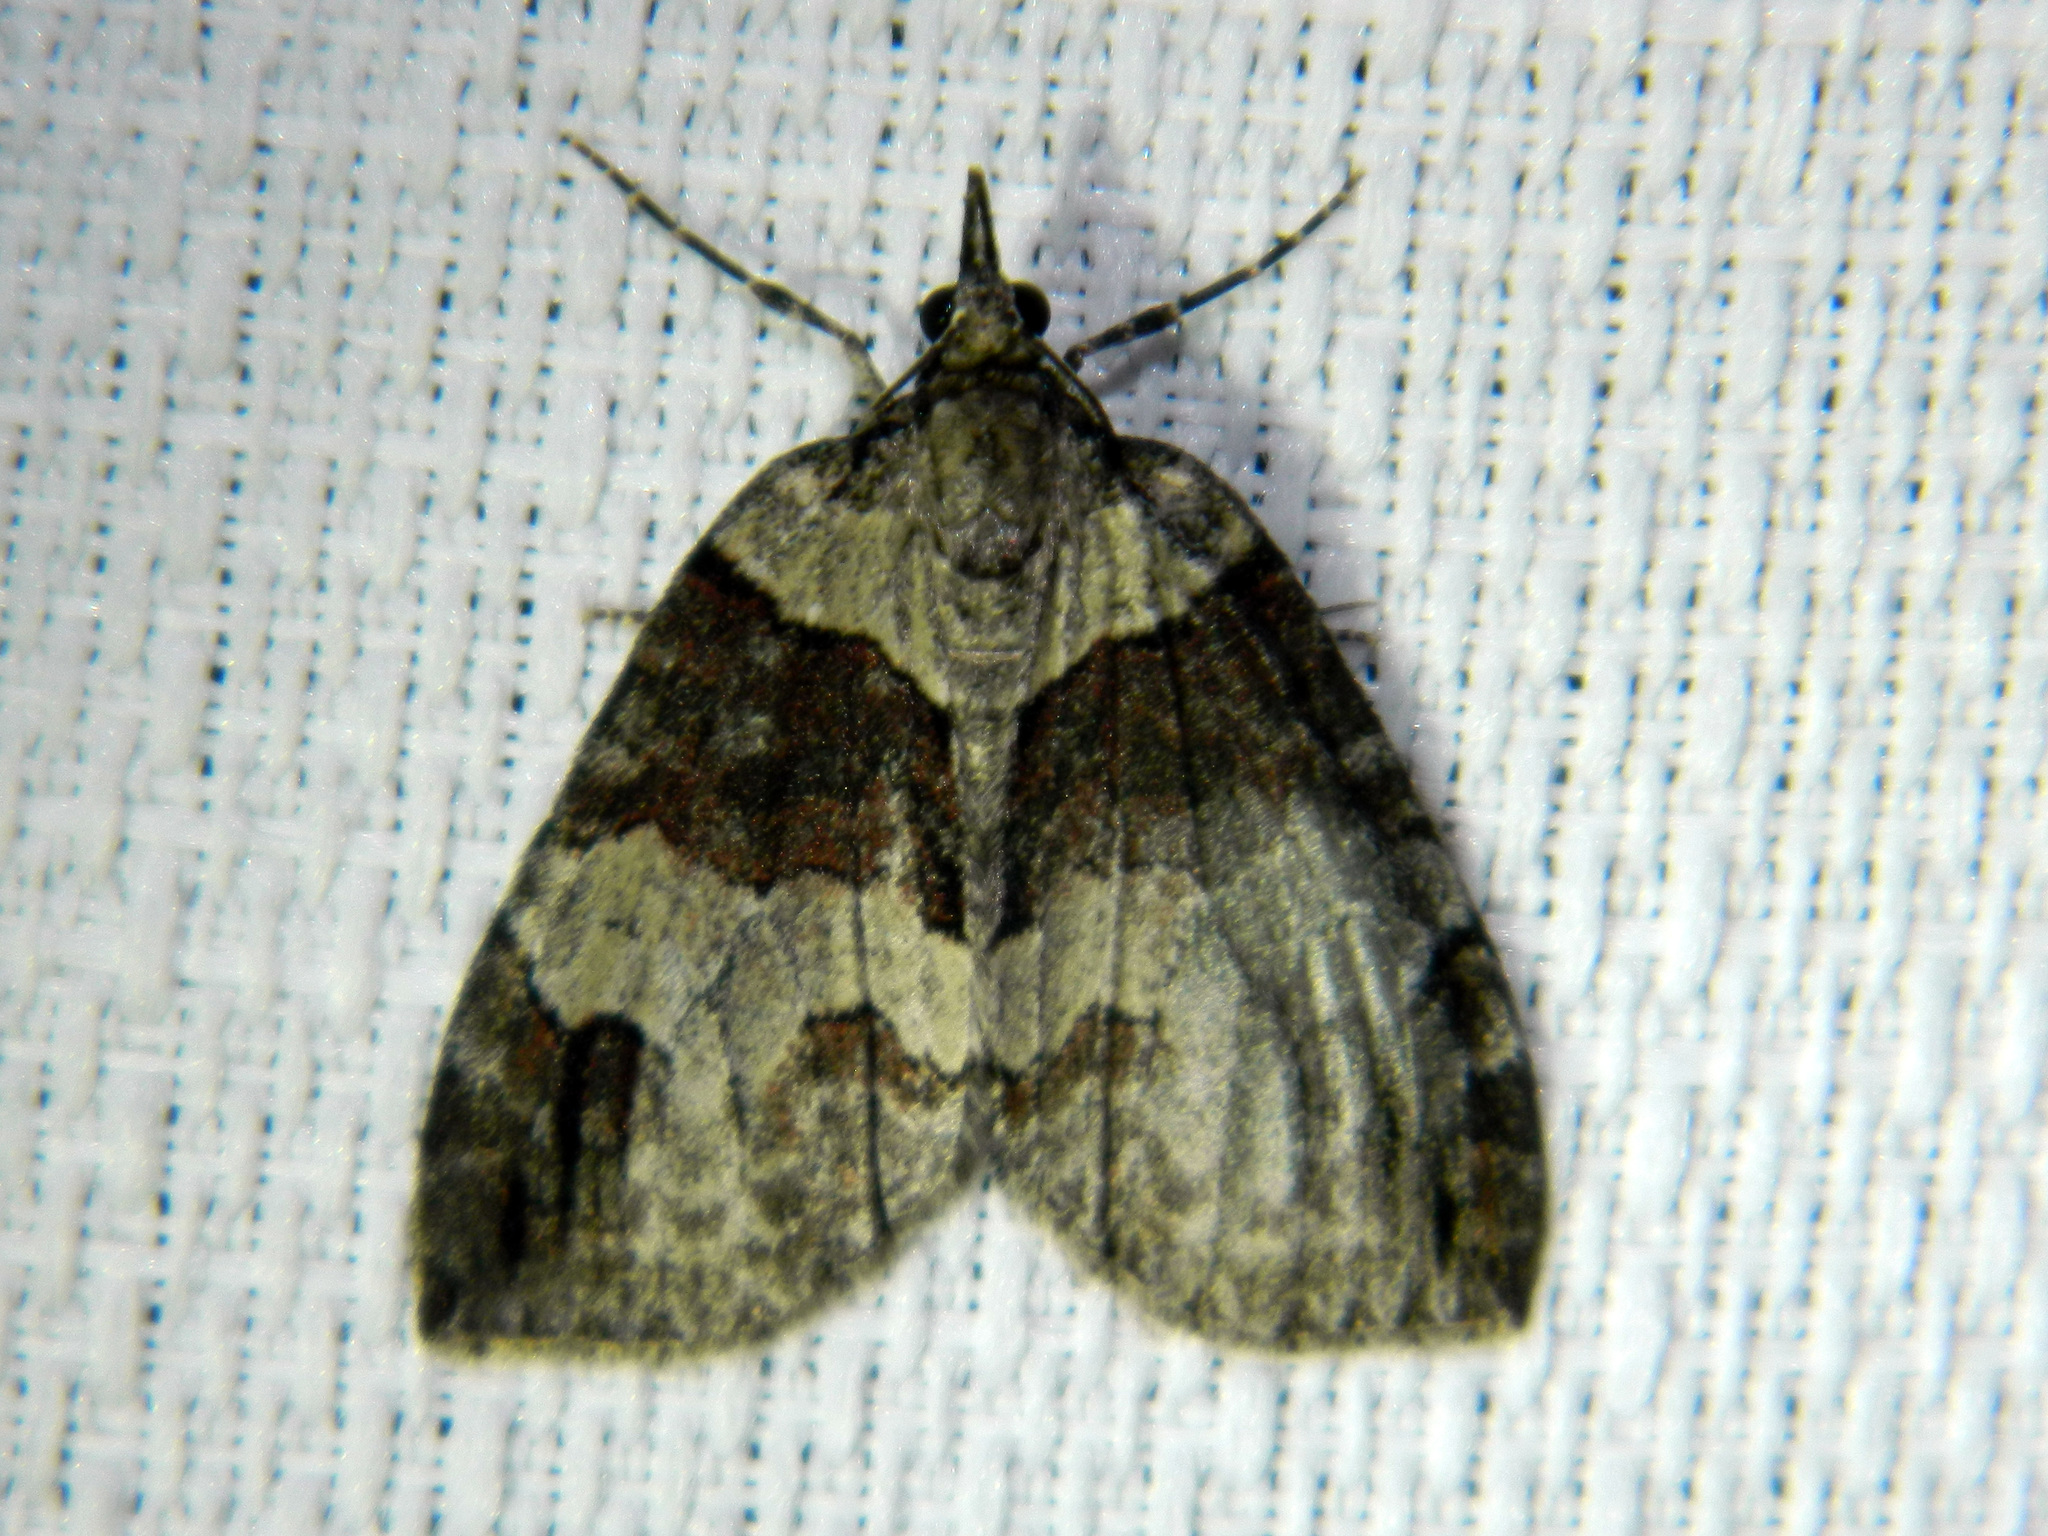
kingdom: Animalia
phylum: Arthropoda
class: Insecta
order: Lepidoptera
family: Geometridae
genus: Hydriomena
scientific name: Hydriomena ruberata
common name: Ruddy highflyer
